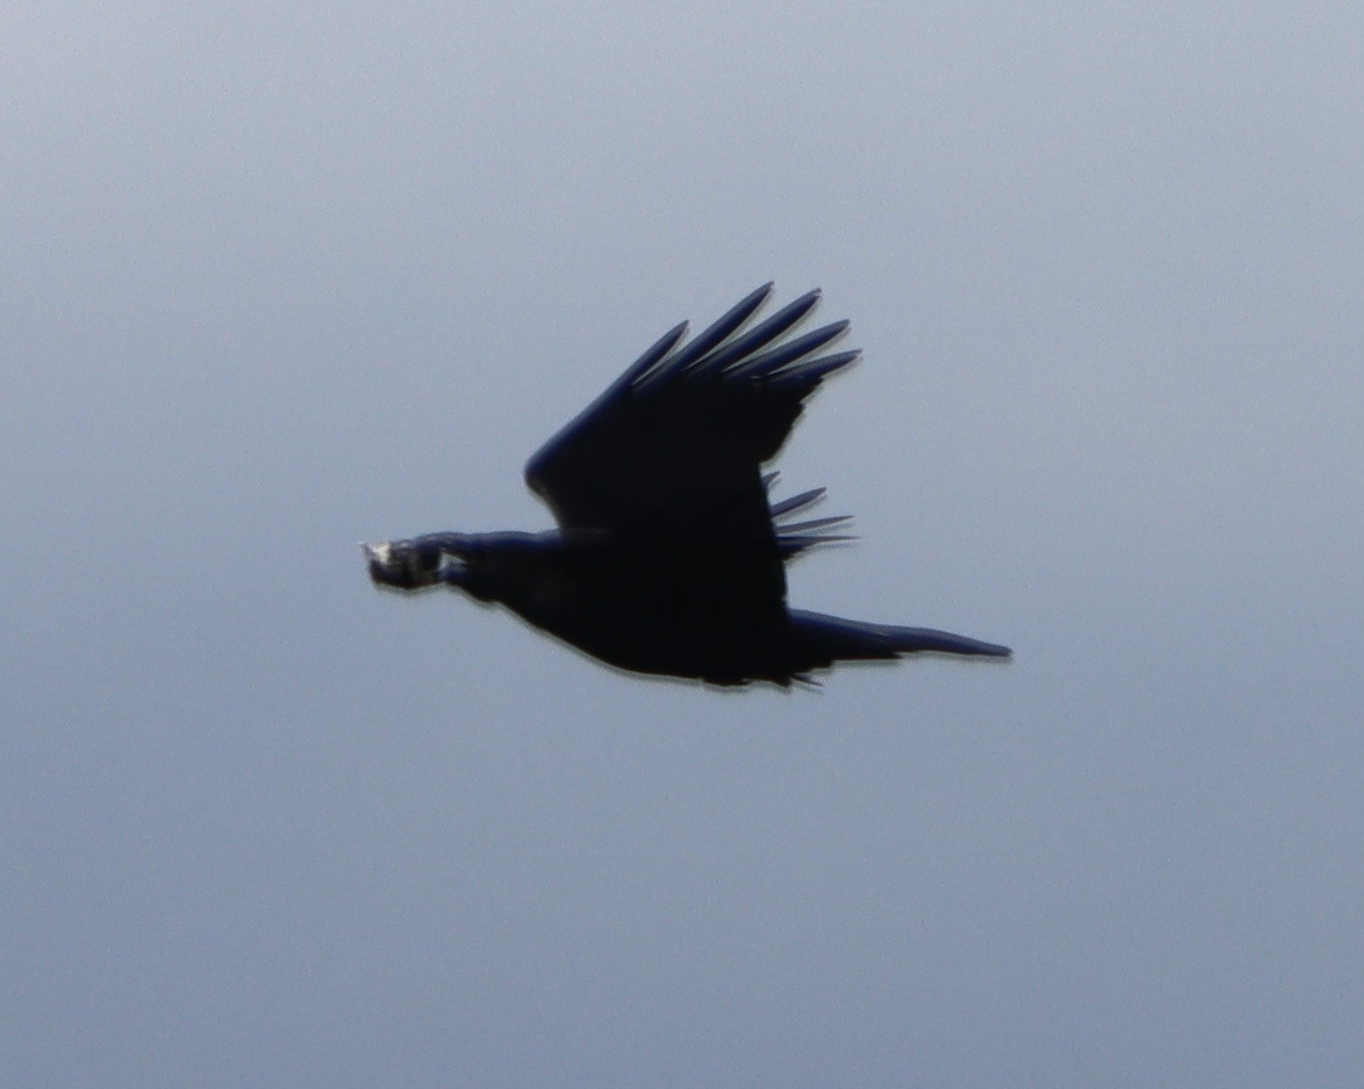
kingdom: Animalia
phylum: Chordata
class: Aves
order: Passeriformes
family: Corvidae
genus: Corvus
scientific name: Corvus corax
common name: Common raven
